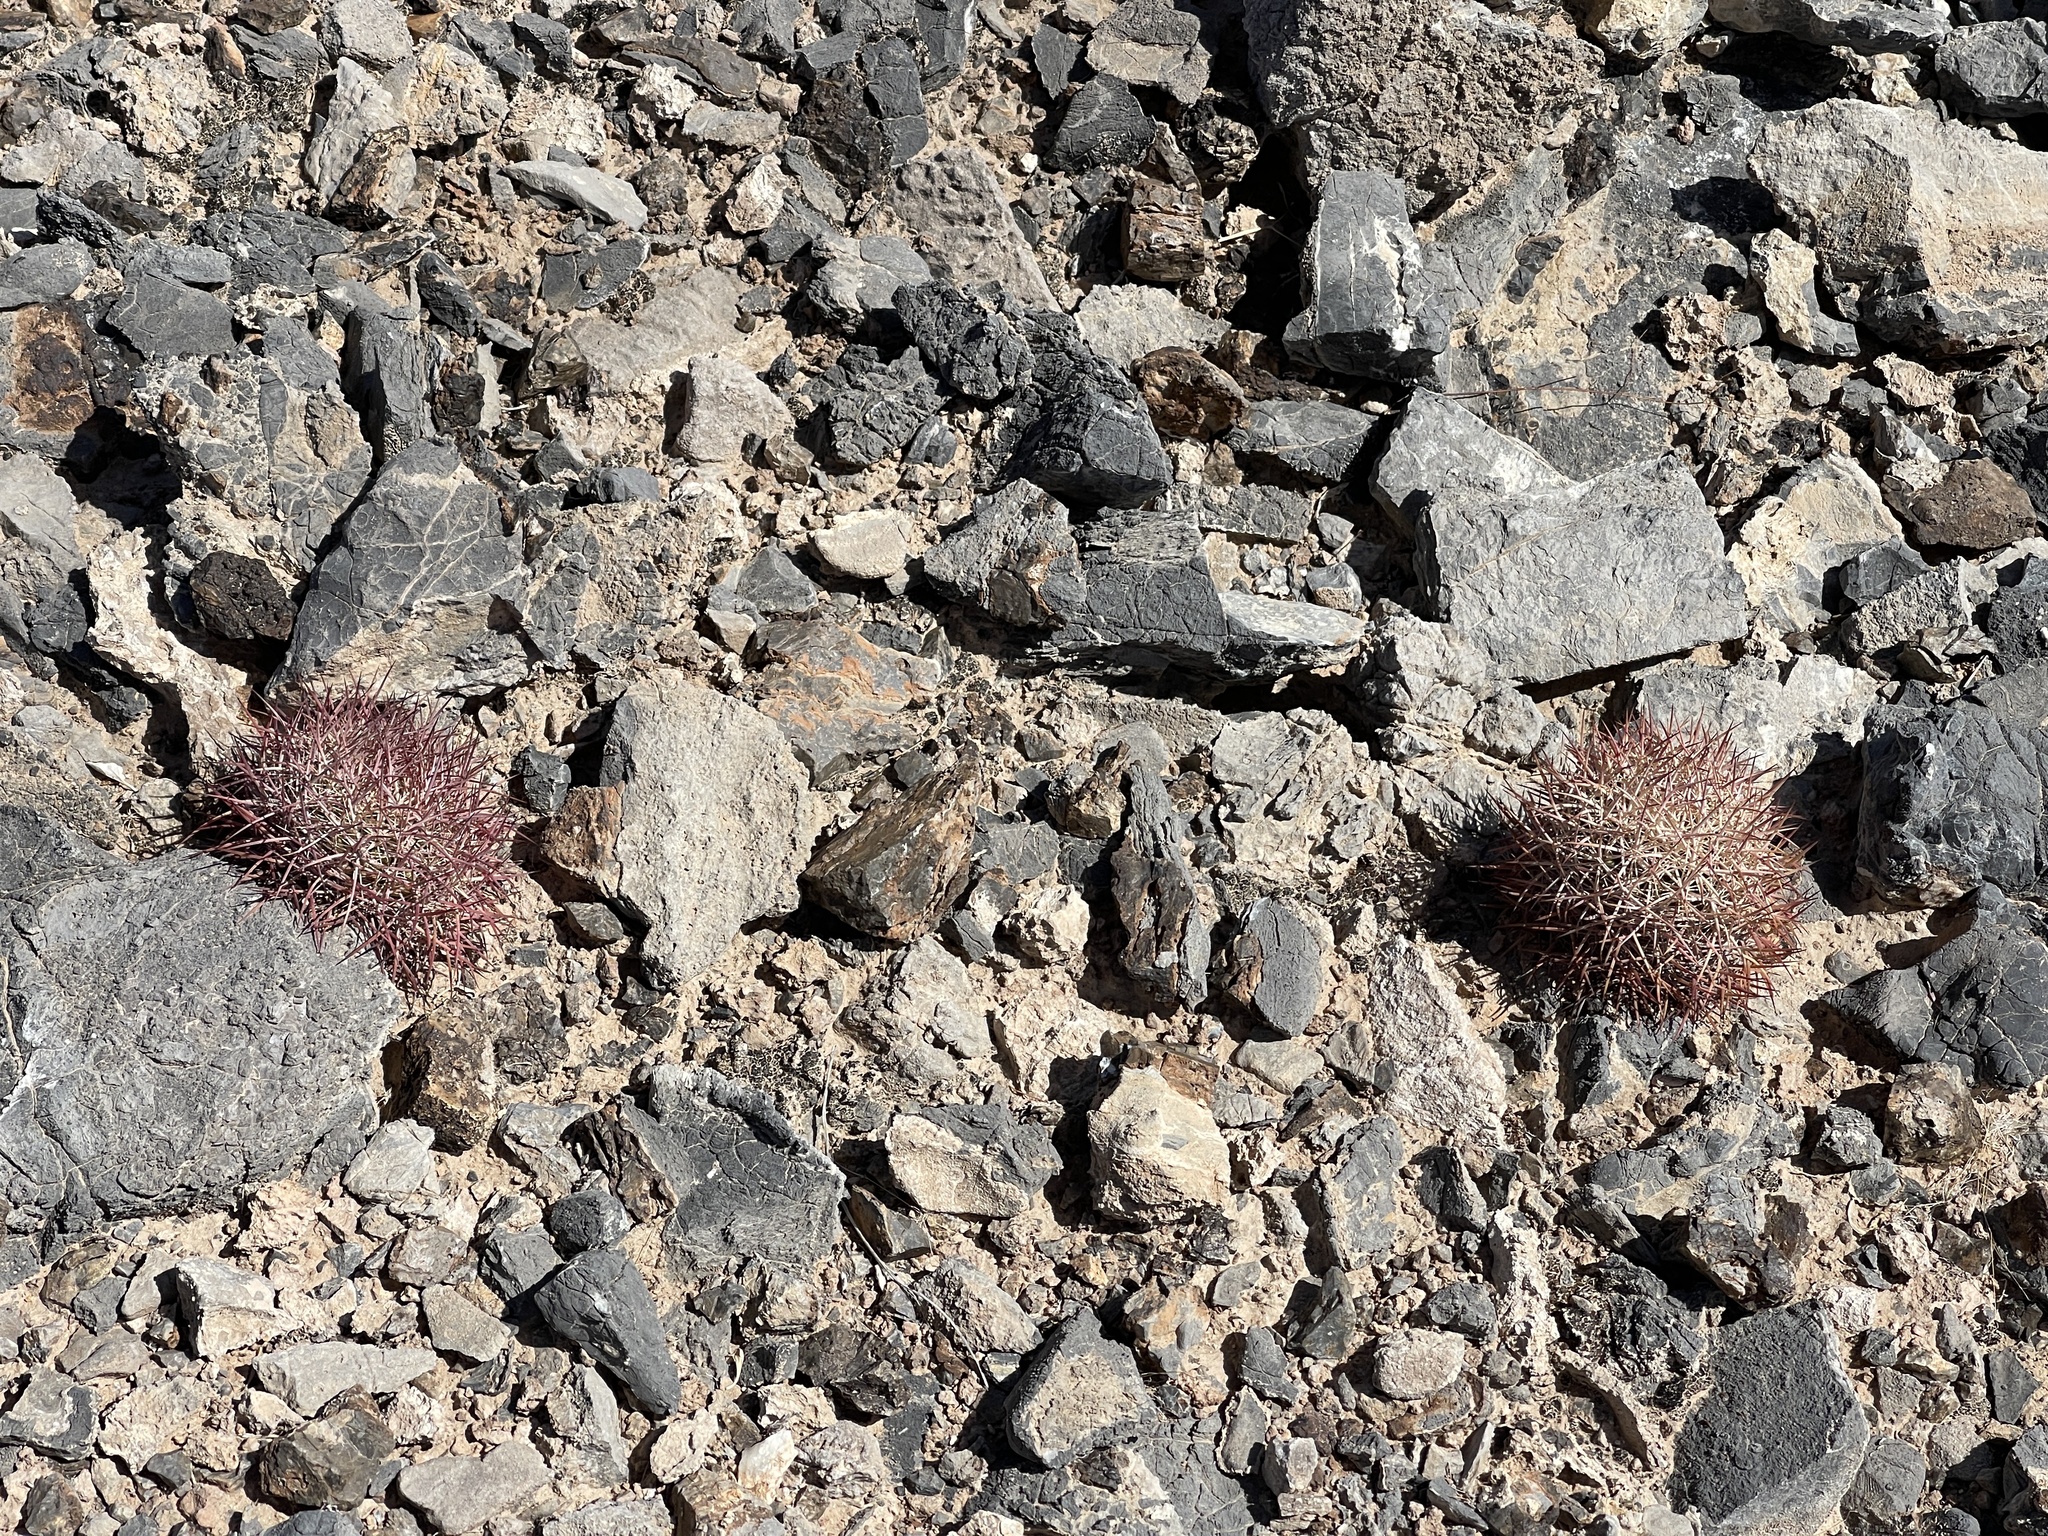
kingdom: Plantae
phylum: Tracheophyta
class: Magnoliopsida
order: Caryophyllales
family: Cactaceae
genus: Sclerocactus
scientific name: Sclerocactus johnsonii
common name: Eight-spine fishhook cactus
